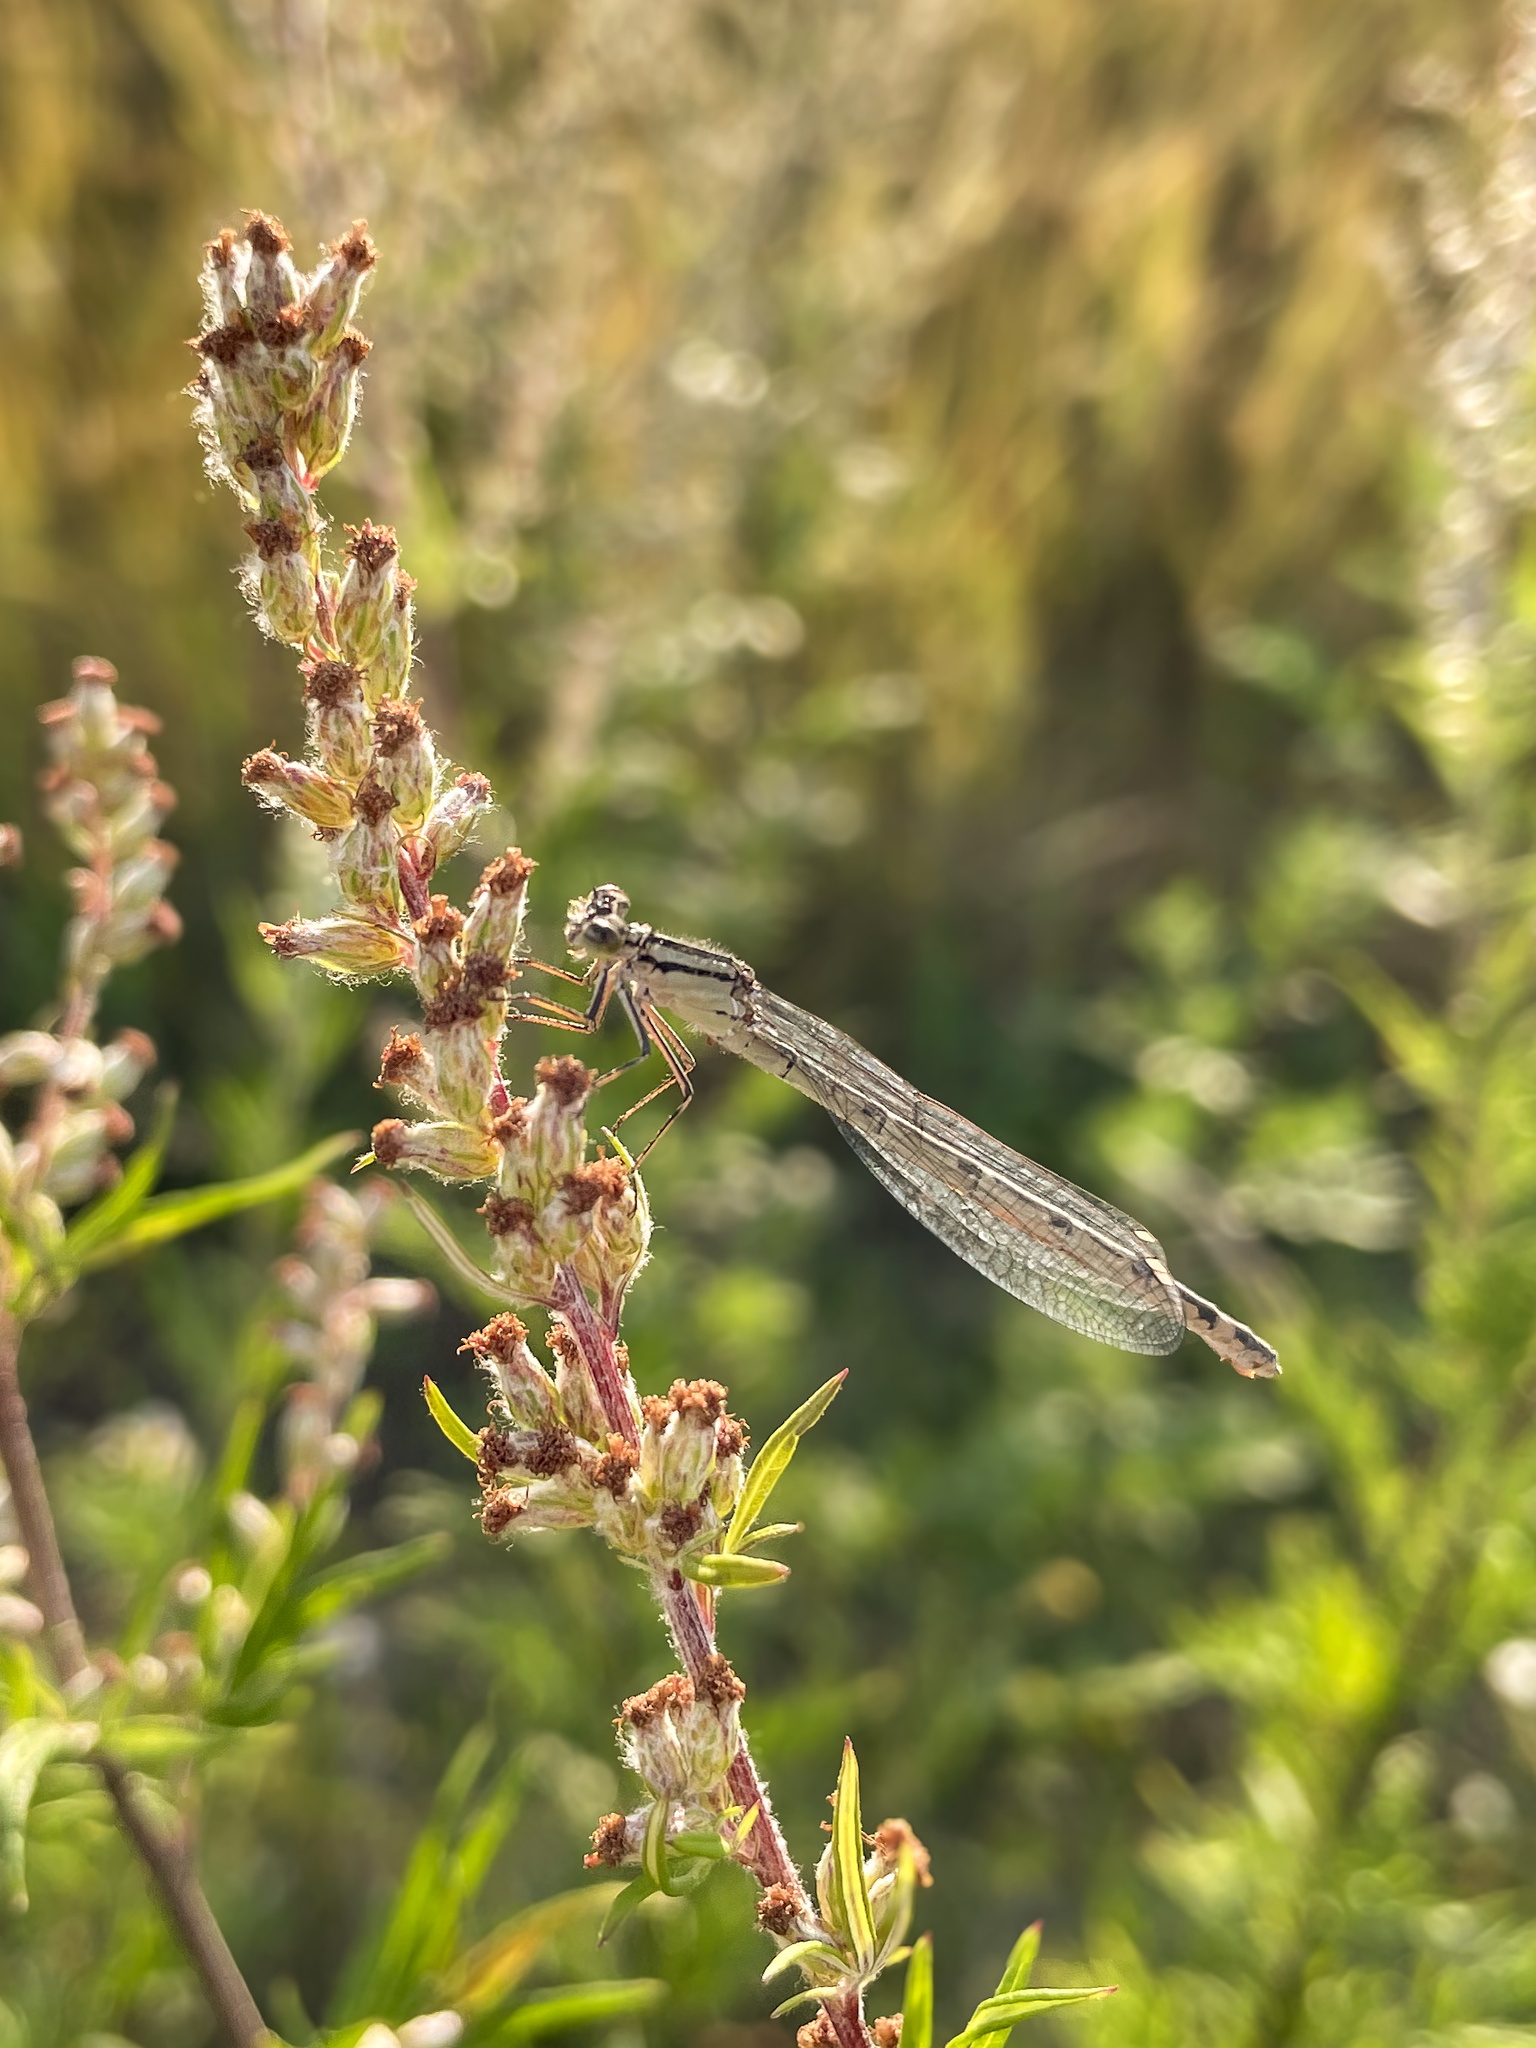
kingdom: Animalia
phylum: Arthropoda
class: Insecta
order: Odonata
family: Coenagrionidae
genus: Enallagma
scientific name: Enallagma cyathigerum
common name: Common blue damselfly
